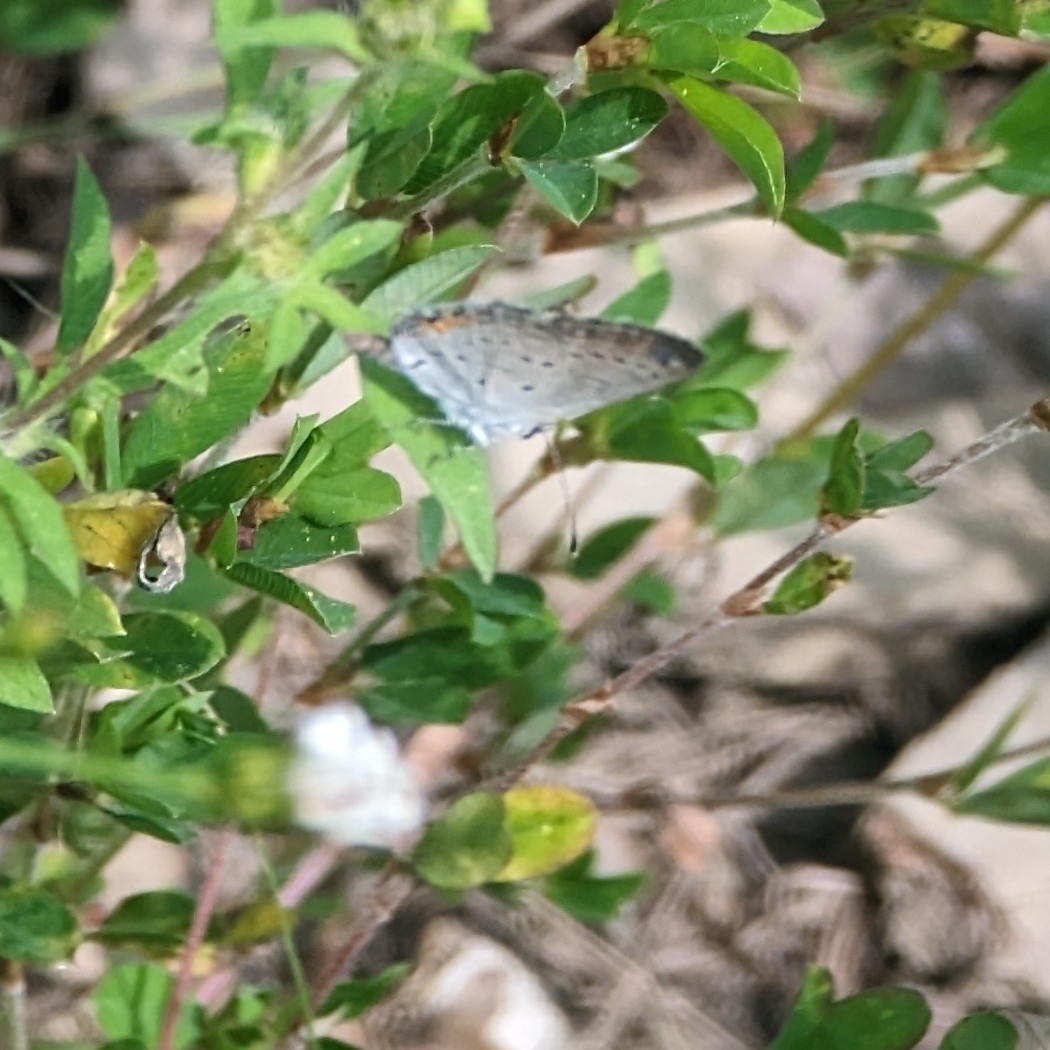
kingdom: Animalia
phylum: Arthropoda
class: Insecta
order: Lepidoptera
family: Lycaenidae
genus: Elkalyce
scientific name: Elkalyce comyntas
